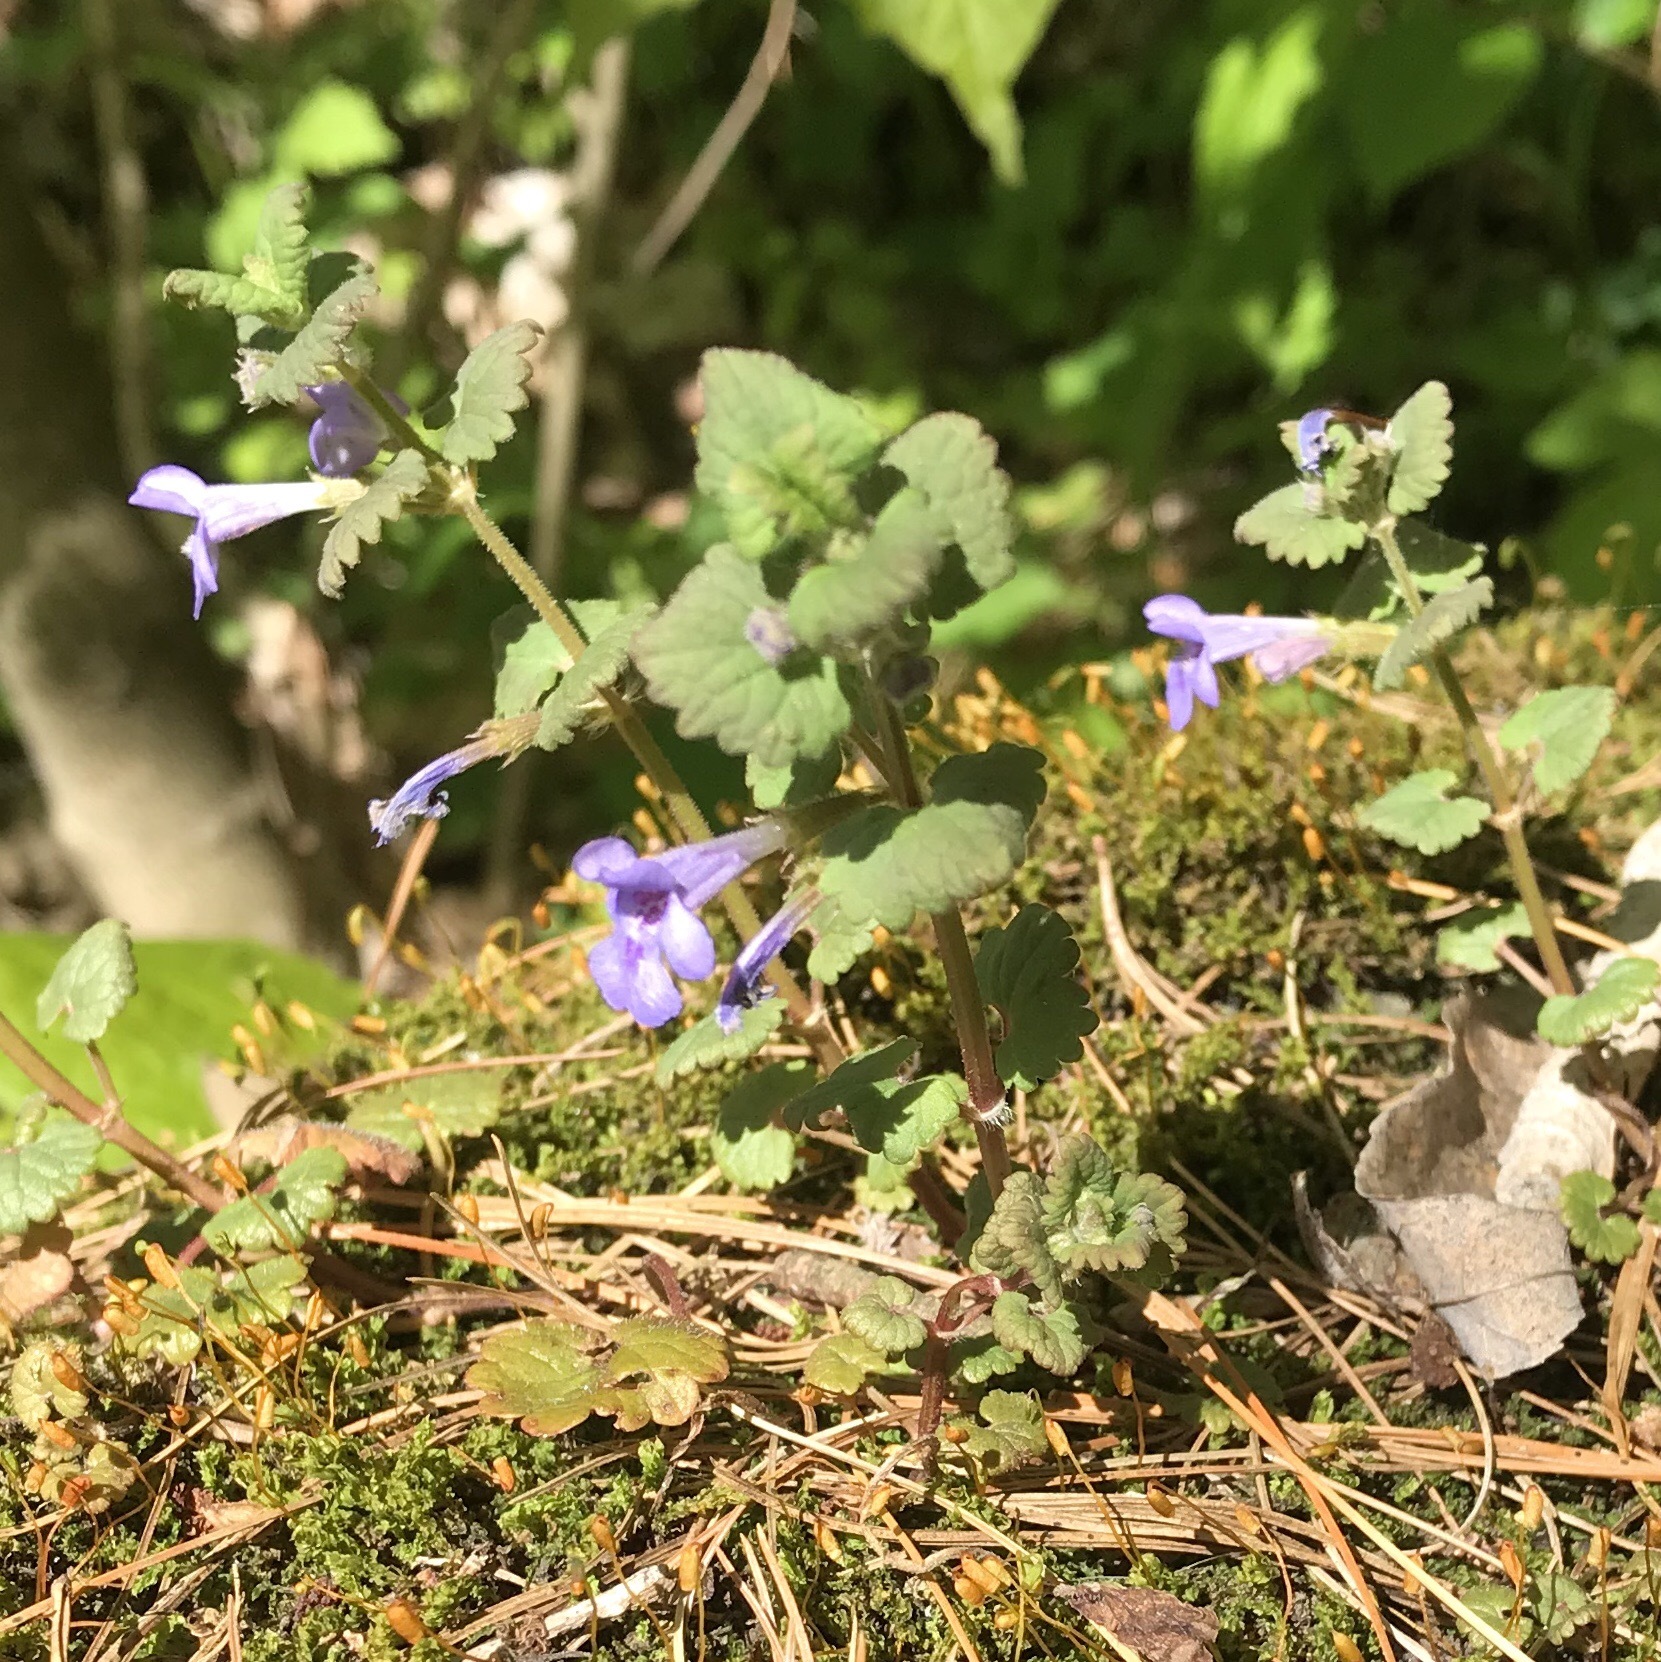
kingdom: Plantae
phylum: Tracheophyta
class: Magnoliopsida
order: Lamiales
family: Lamiaceae
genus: Glechoma
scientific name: Glechoma hederacea
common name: Ground ivy
